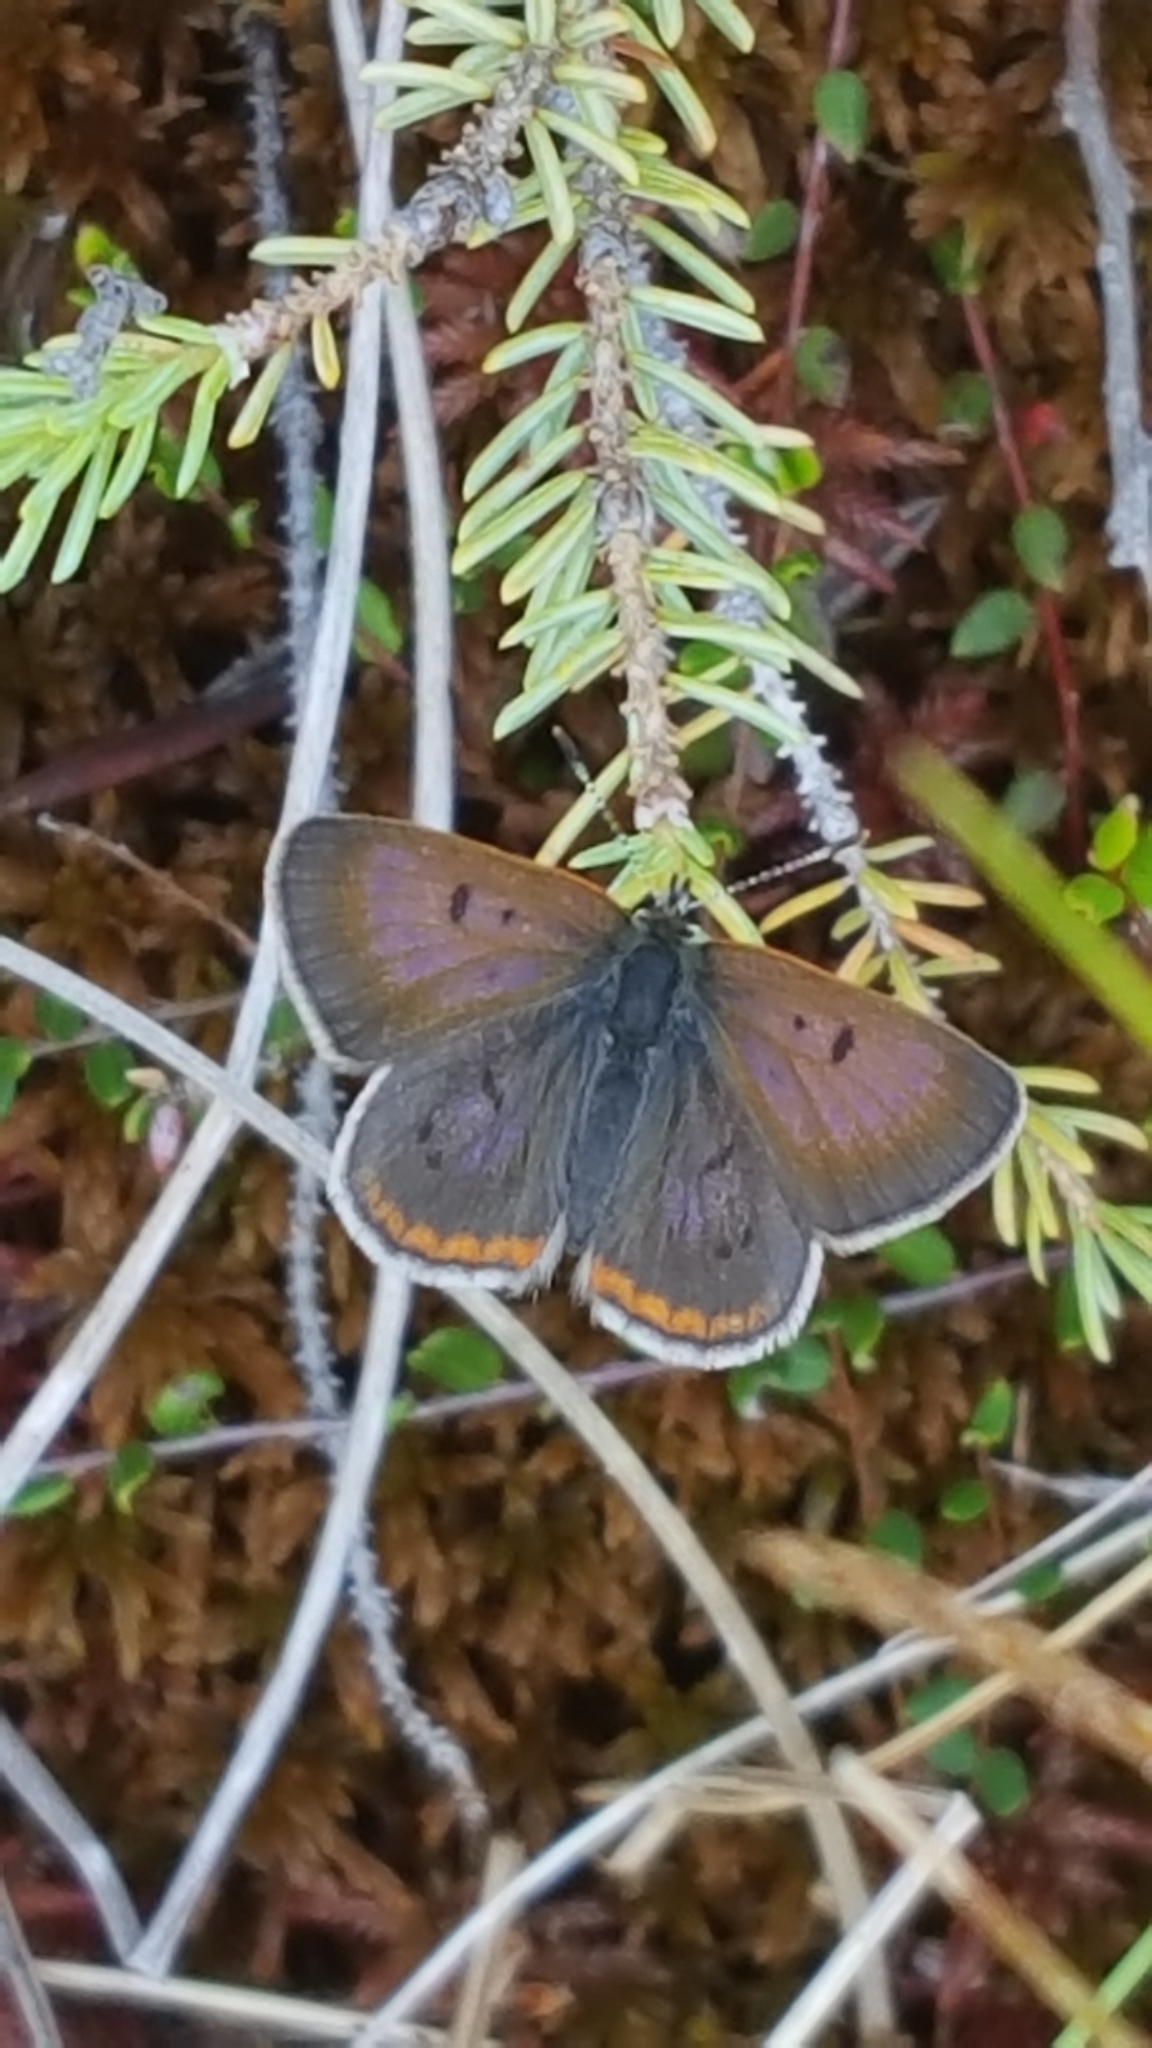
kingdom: Animalia
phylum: Arthropoda
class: Insecta
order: Lepidoptera
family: Lycaenidae
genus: Tharsalea
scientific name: Tharsalea epixanthe
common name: Bog copper
